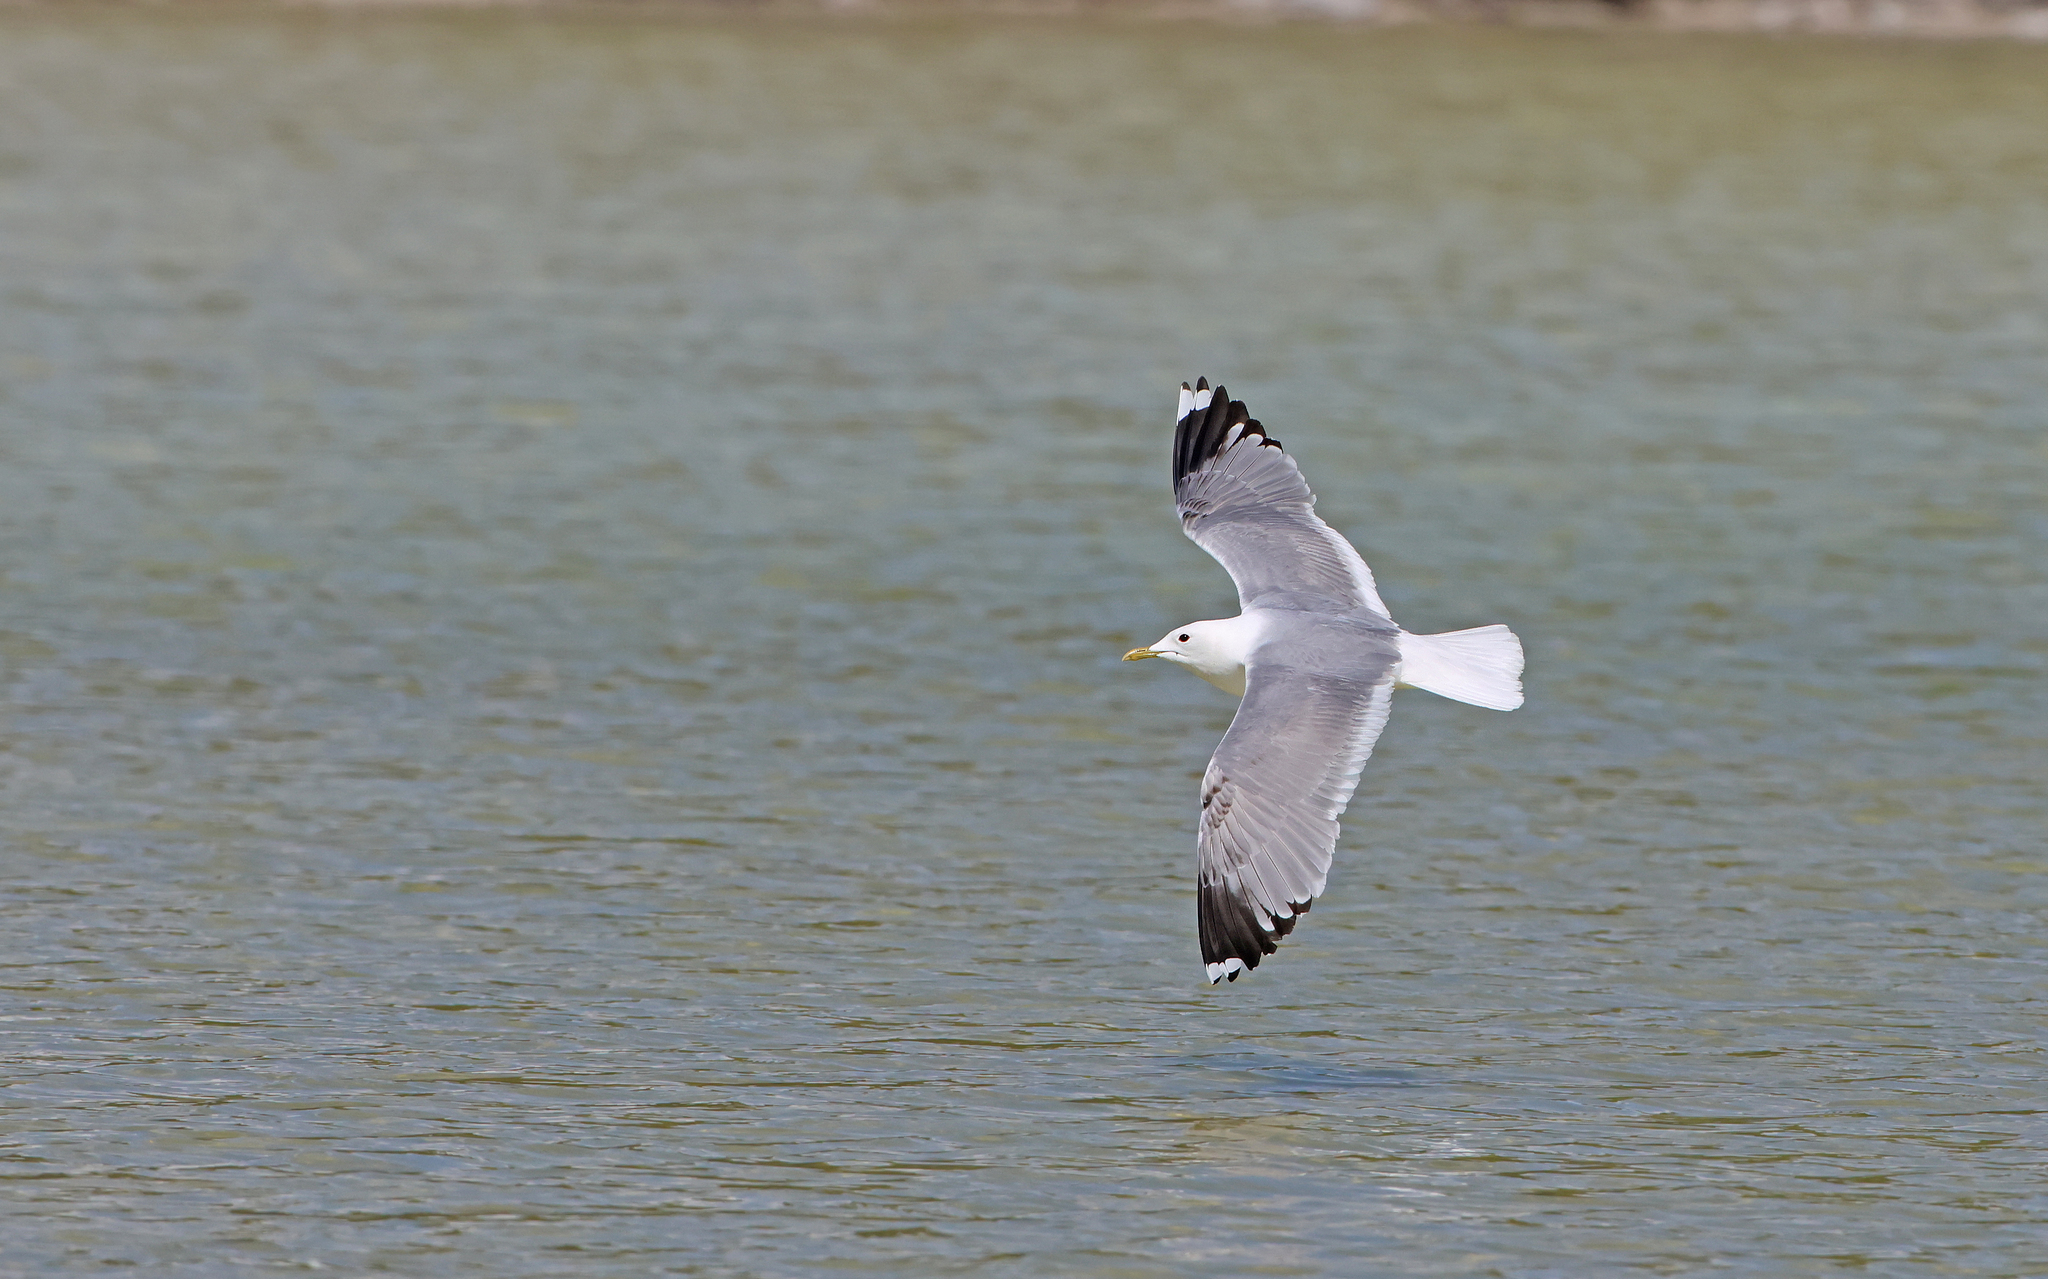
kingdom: Animalia
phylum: Chordata
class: Aves
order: Charadriiformes
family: Laridae
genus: Larus
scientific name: Larus canus
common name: Mew gull
